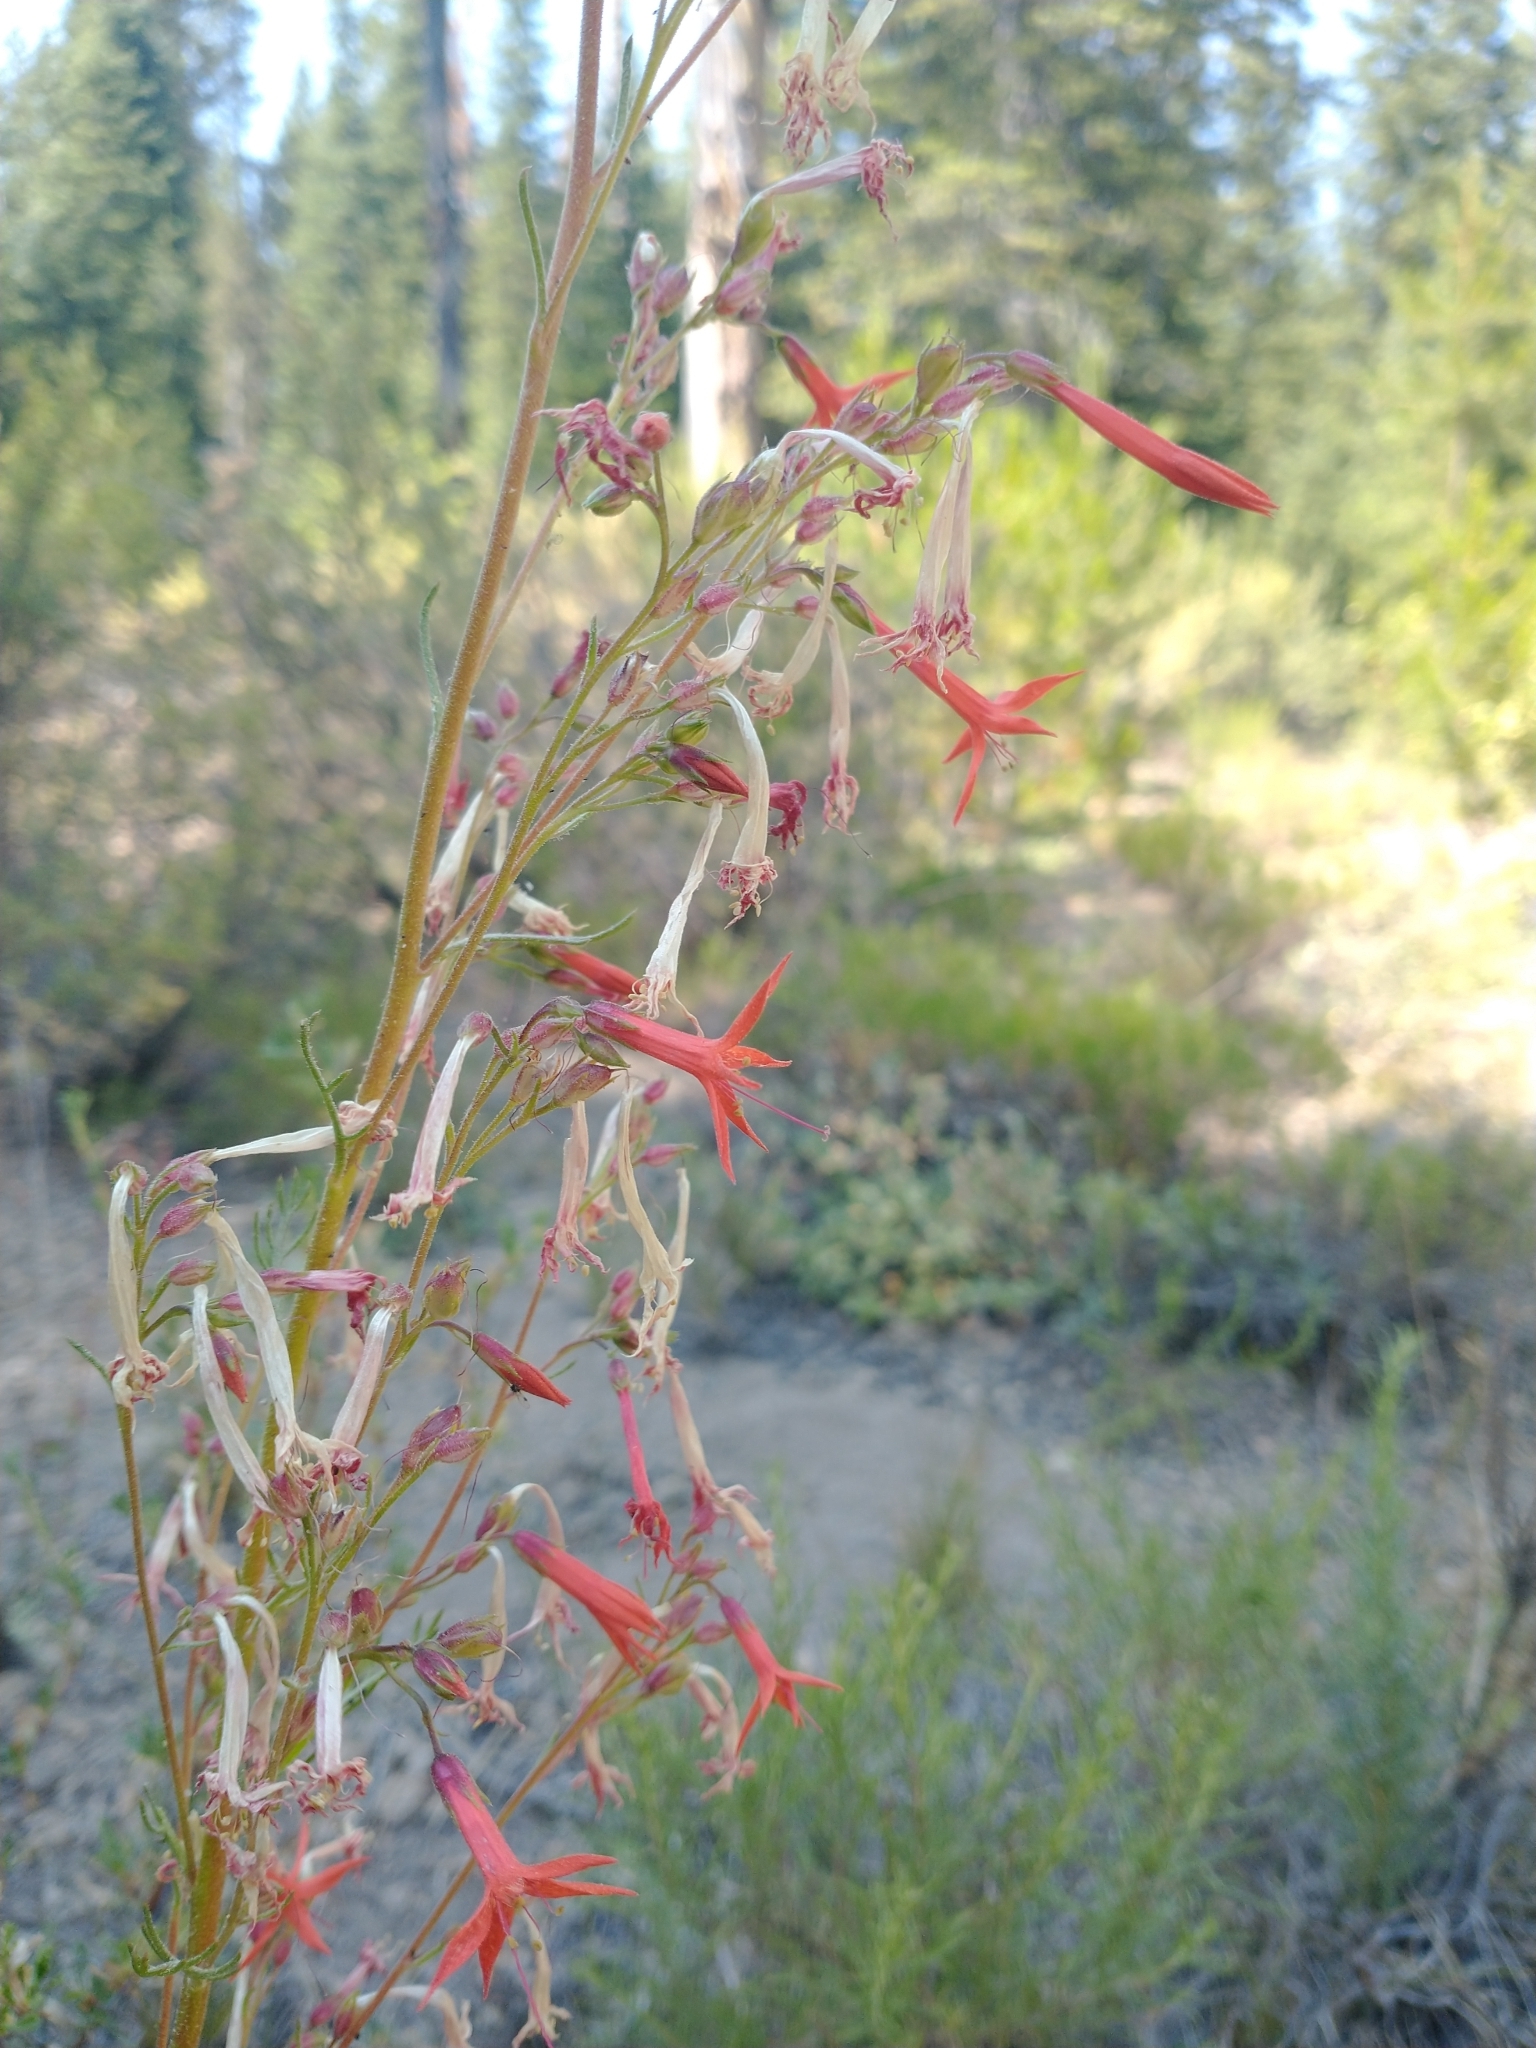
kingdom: Plantae
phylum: Tracheophyta
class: Magnoliopsida
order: Ericales
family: Polemoniaceae
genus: Ipomopsis
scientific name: Ipomopsis aggregata
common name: Scarlet gilia
